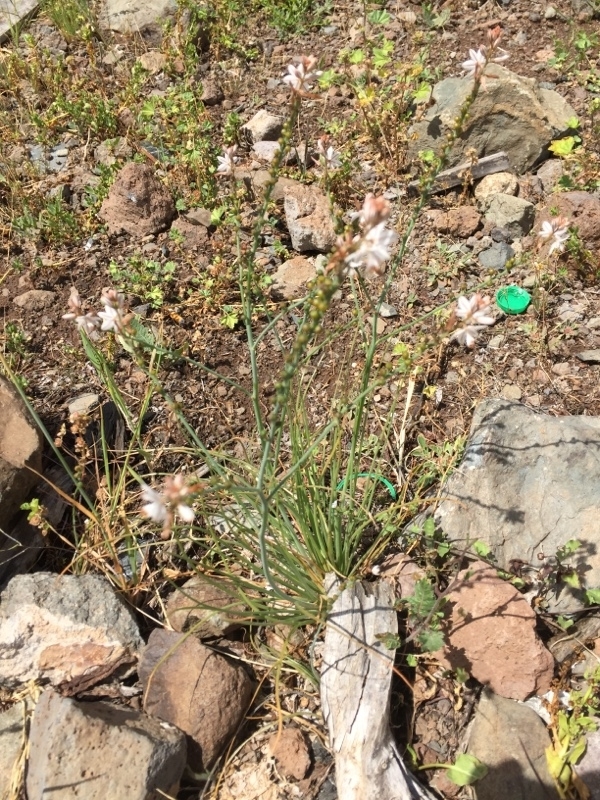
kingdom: Plantae
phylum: Tracheophyta
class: Liliopsida
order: Asparagales
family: Asphodelaceae
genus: Asphodelus
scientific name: Asphodelus fistulosus
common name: Onionweed
